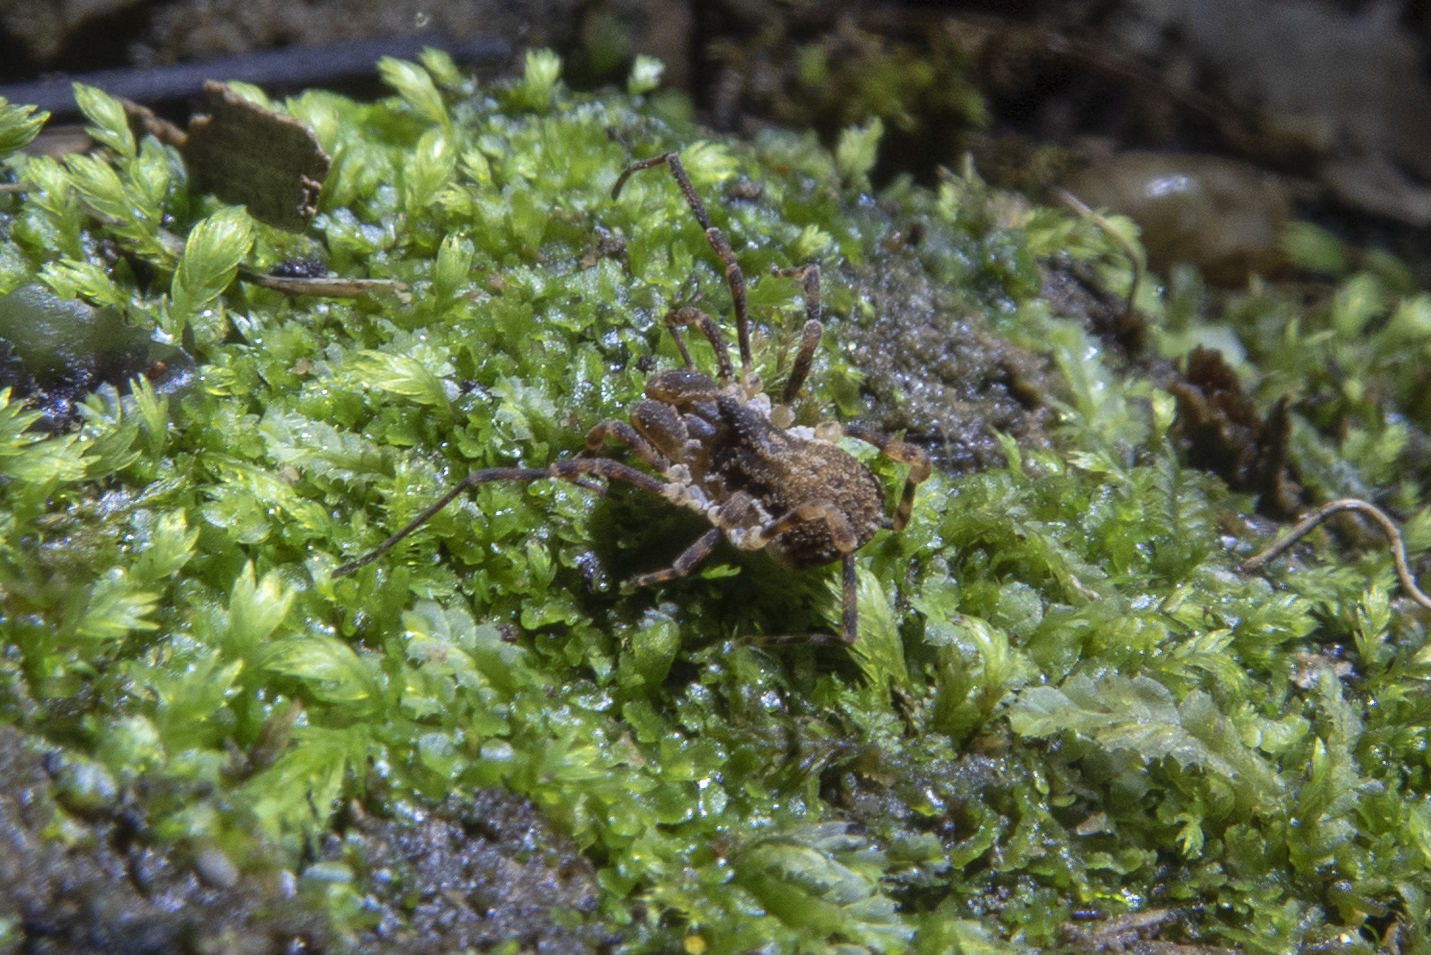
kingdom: Animalia
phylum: Arthropoda
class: Arachnida
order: Opiliones
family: Triaenonychidae
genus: Pristobunus
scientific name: Pristobunus acentrus
